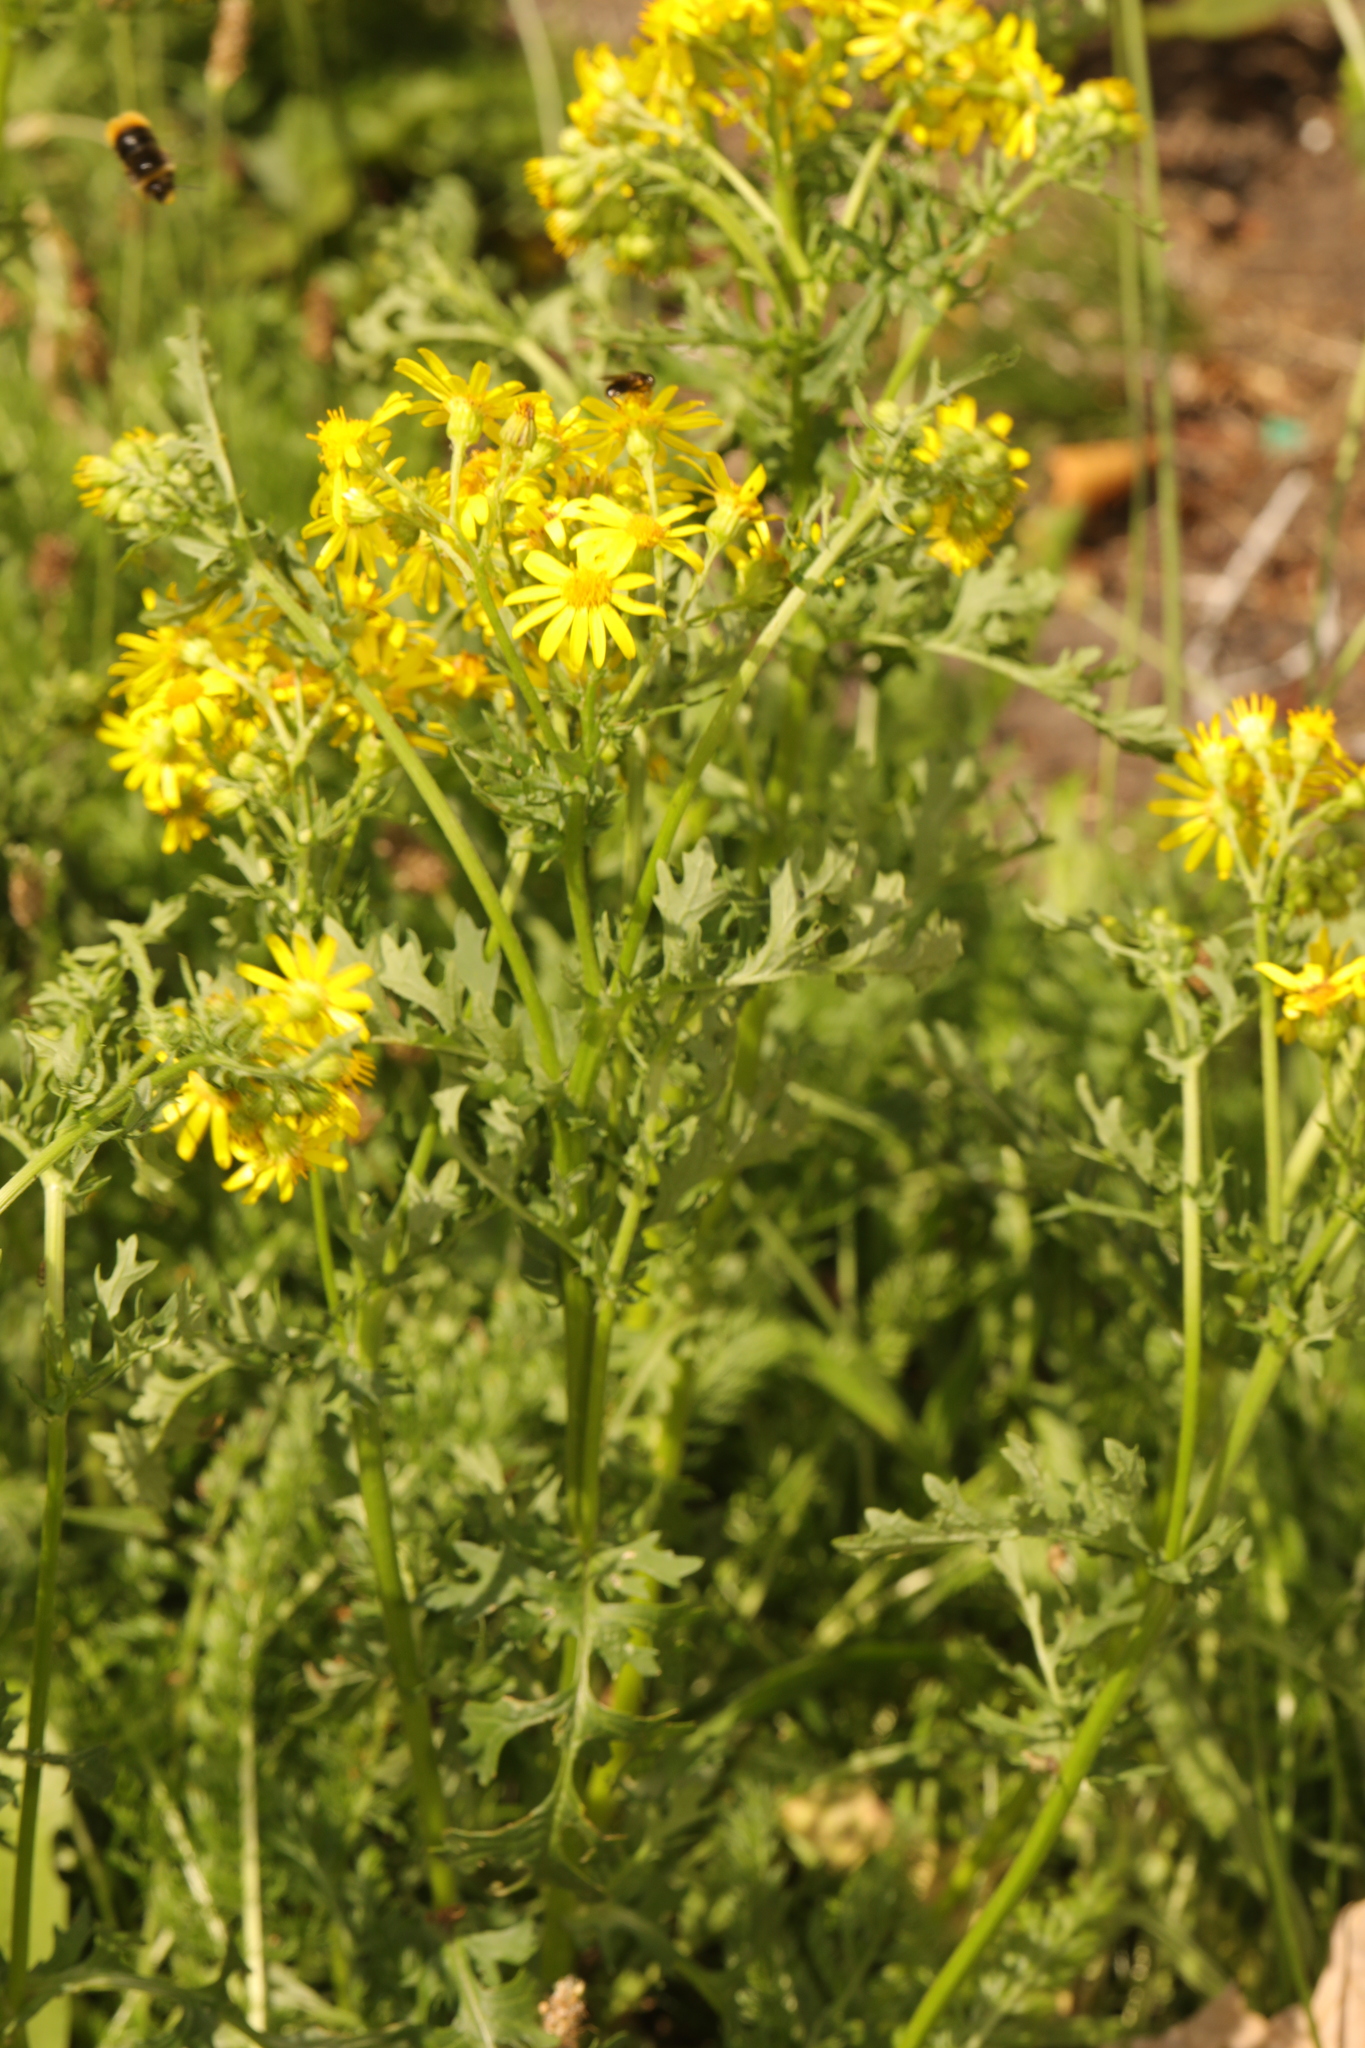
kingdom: Plantae
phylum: Tracheophyta
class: Magnoliopsida
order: Asterales
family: Asteraceae
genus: Jacobaea
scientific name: Jacobaea vulgaris
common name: Stinking willie
